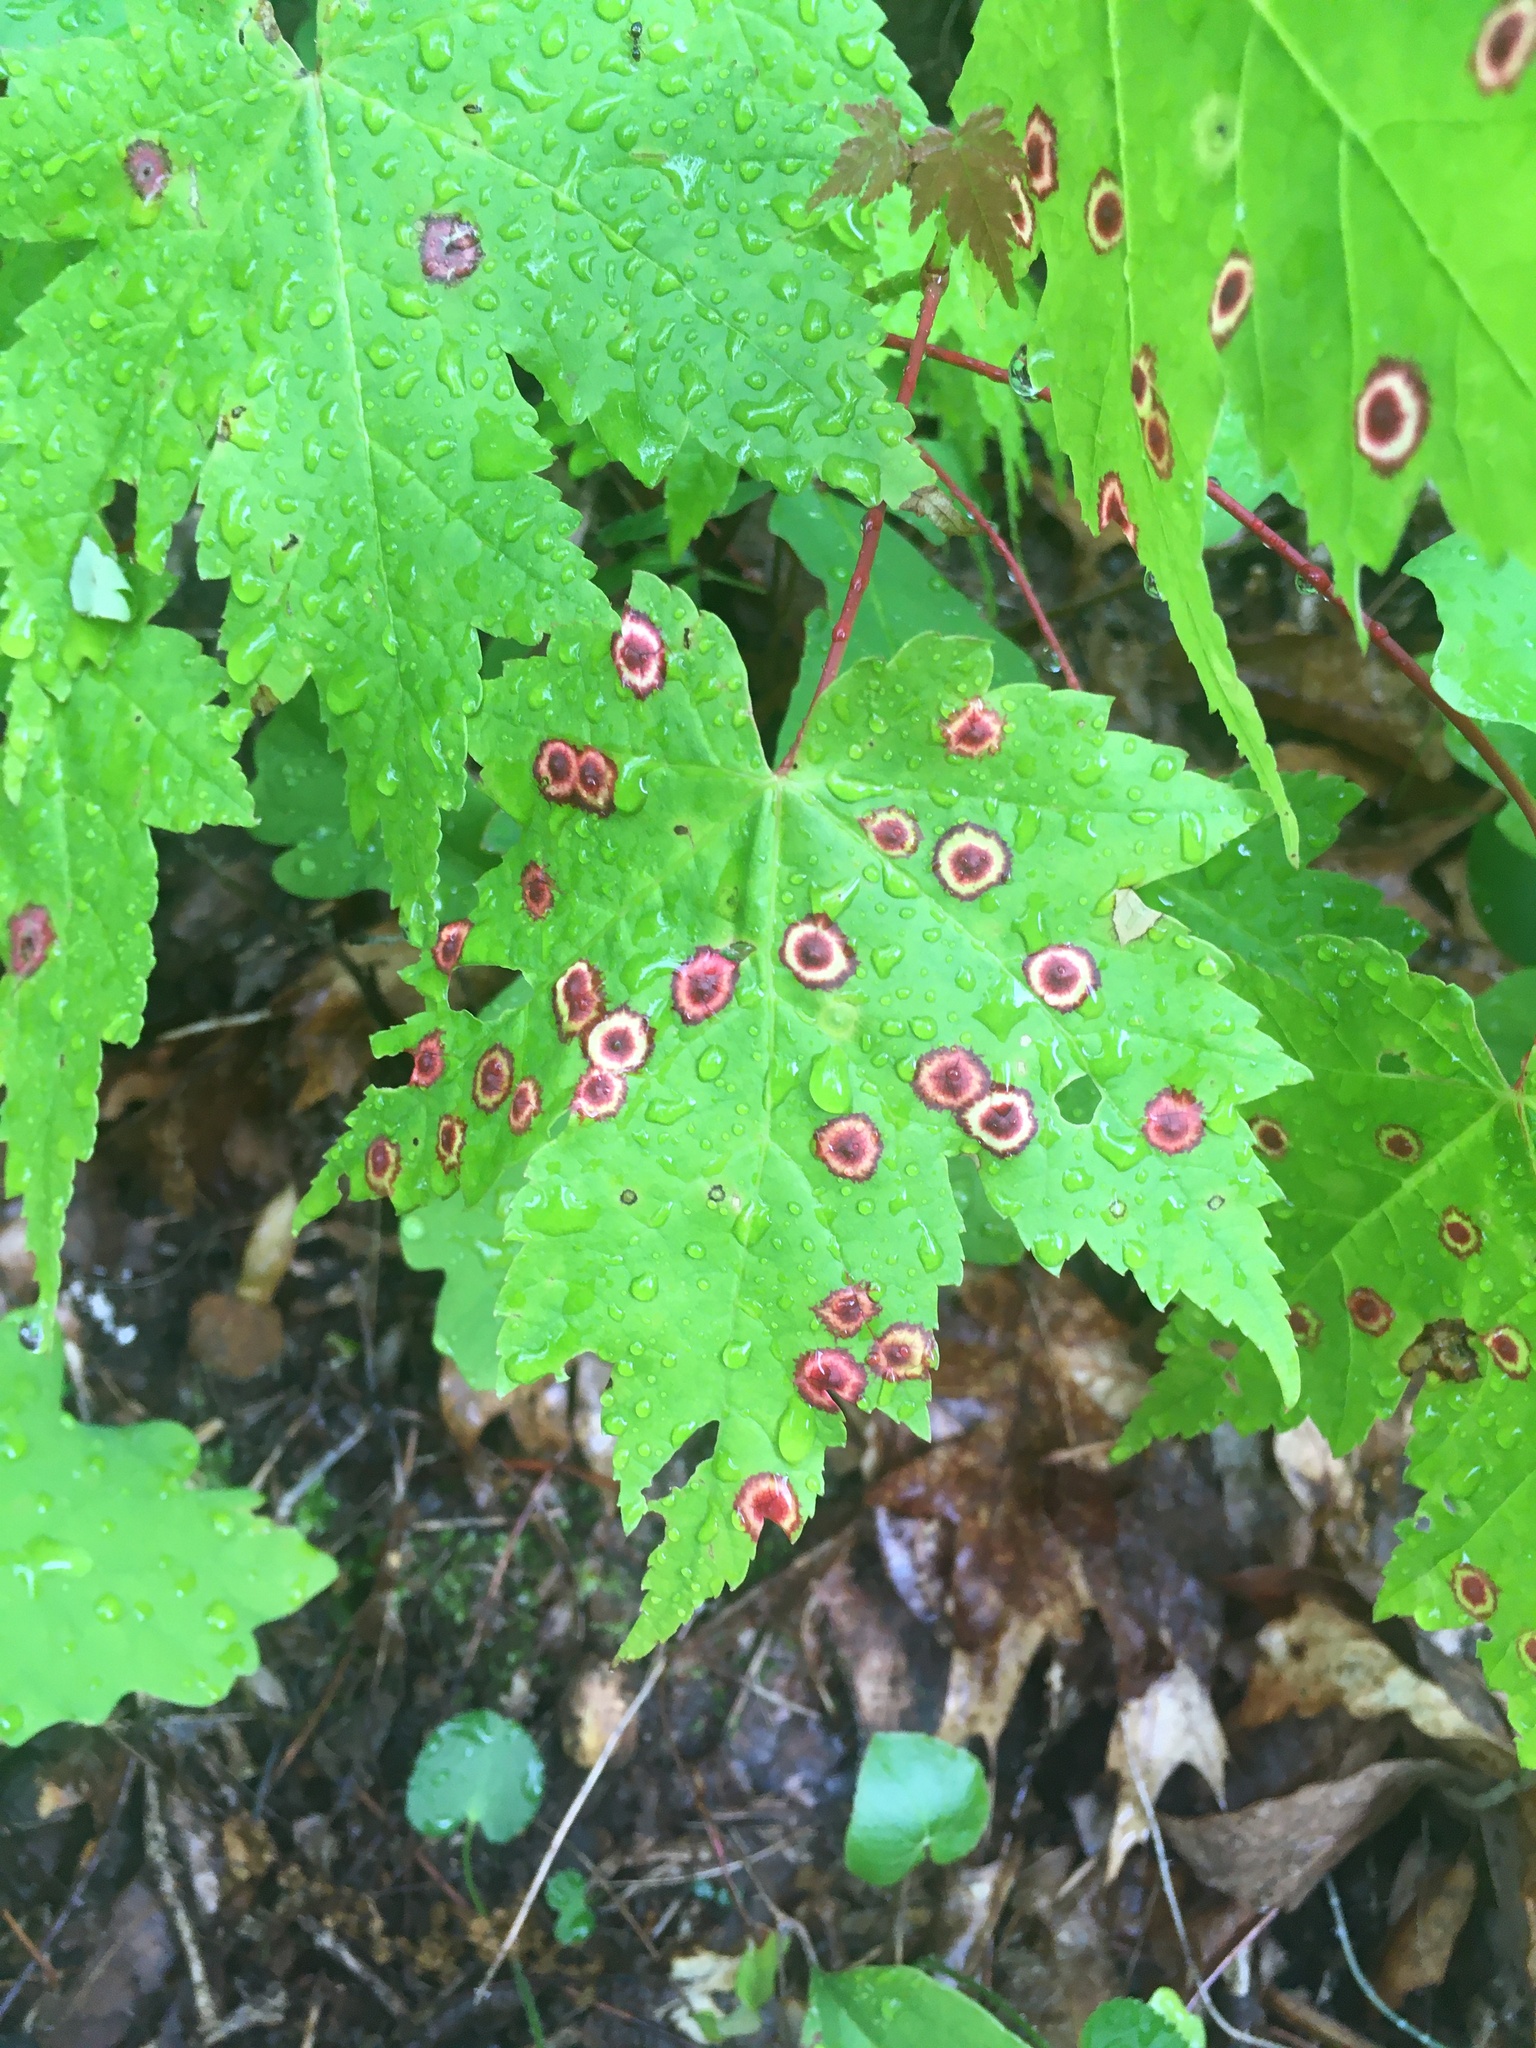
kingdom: Animalia
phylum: Arthropoda
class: Insecta
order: Diptera
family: Cecidomyiidae
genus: Acericecis
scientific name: Acericecis ocellaris
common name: Ocellate gall midge
